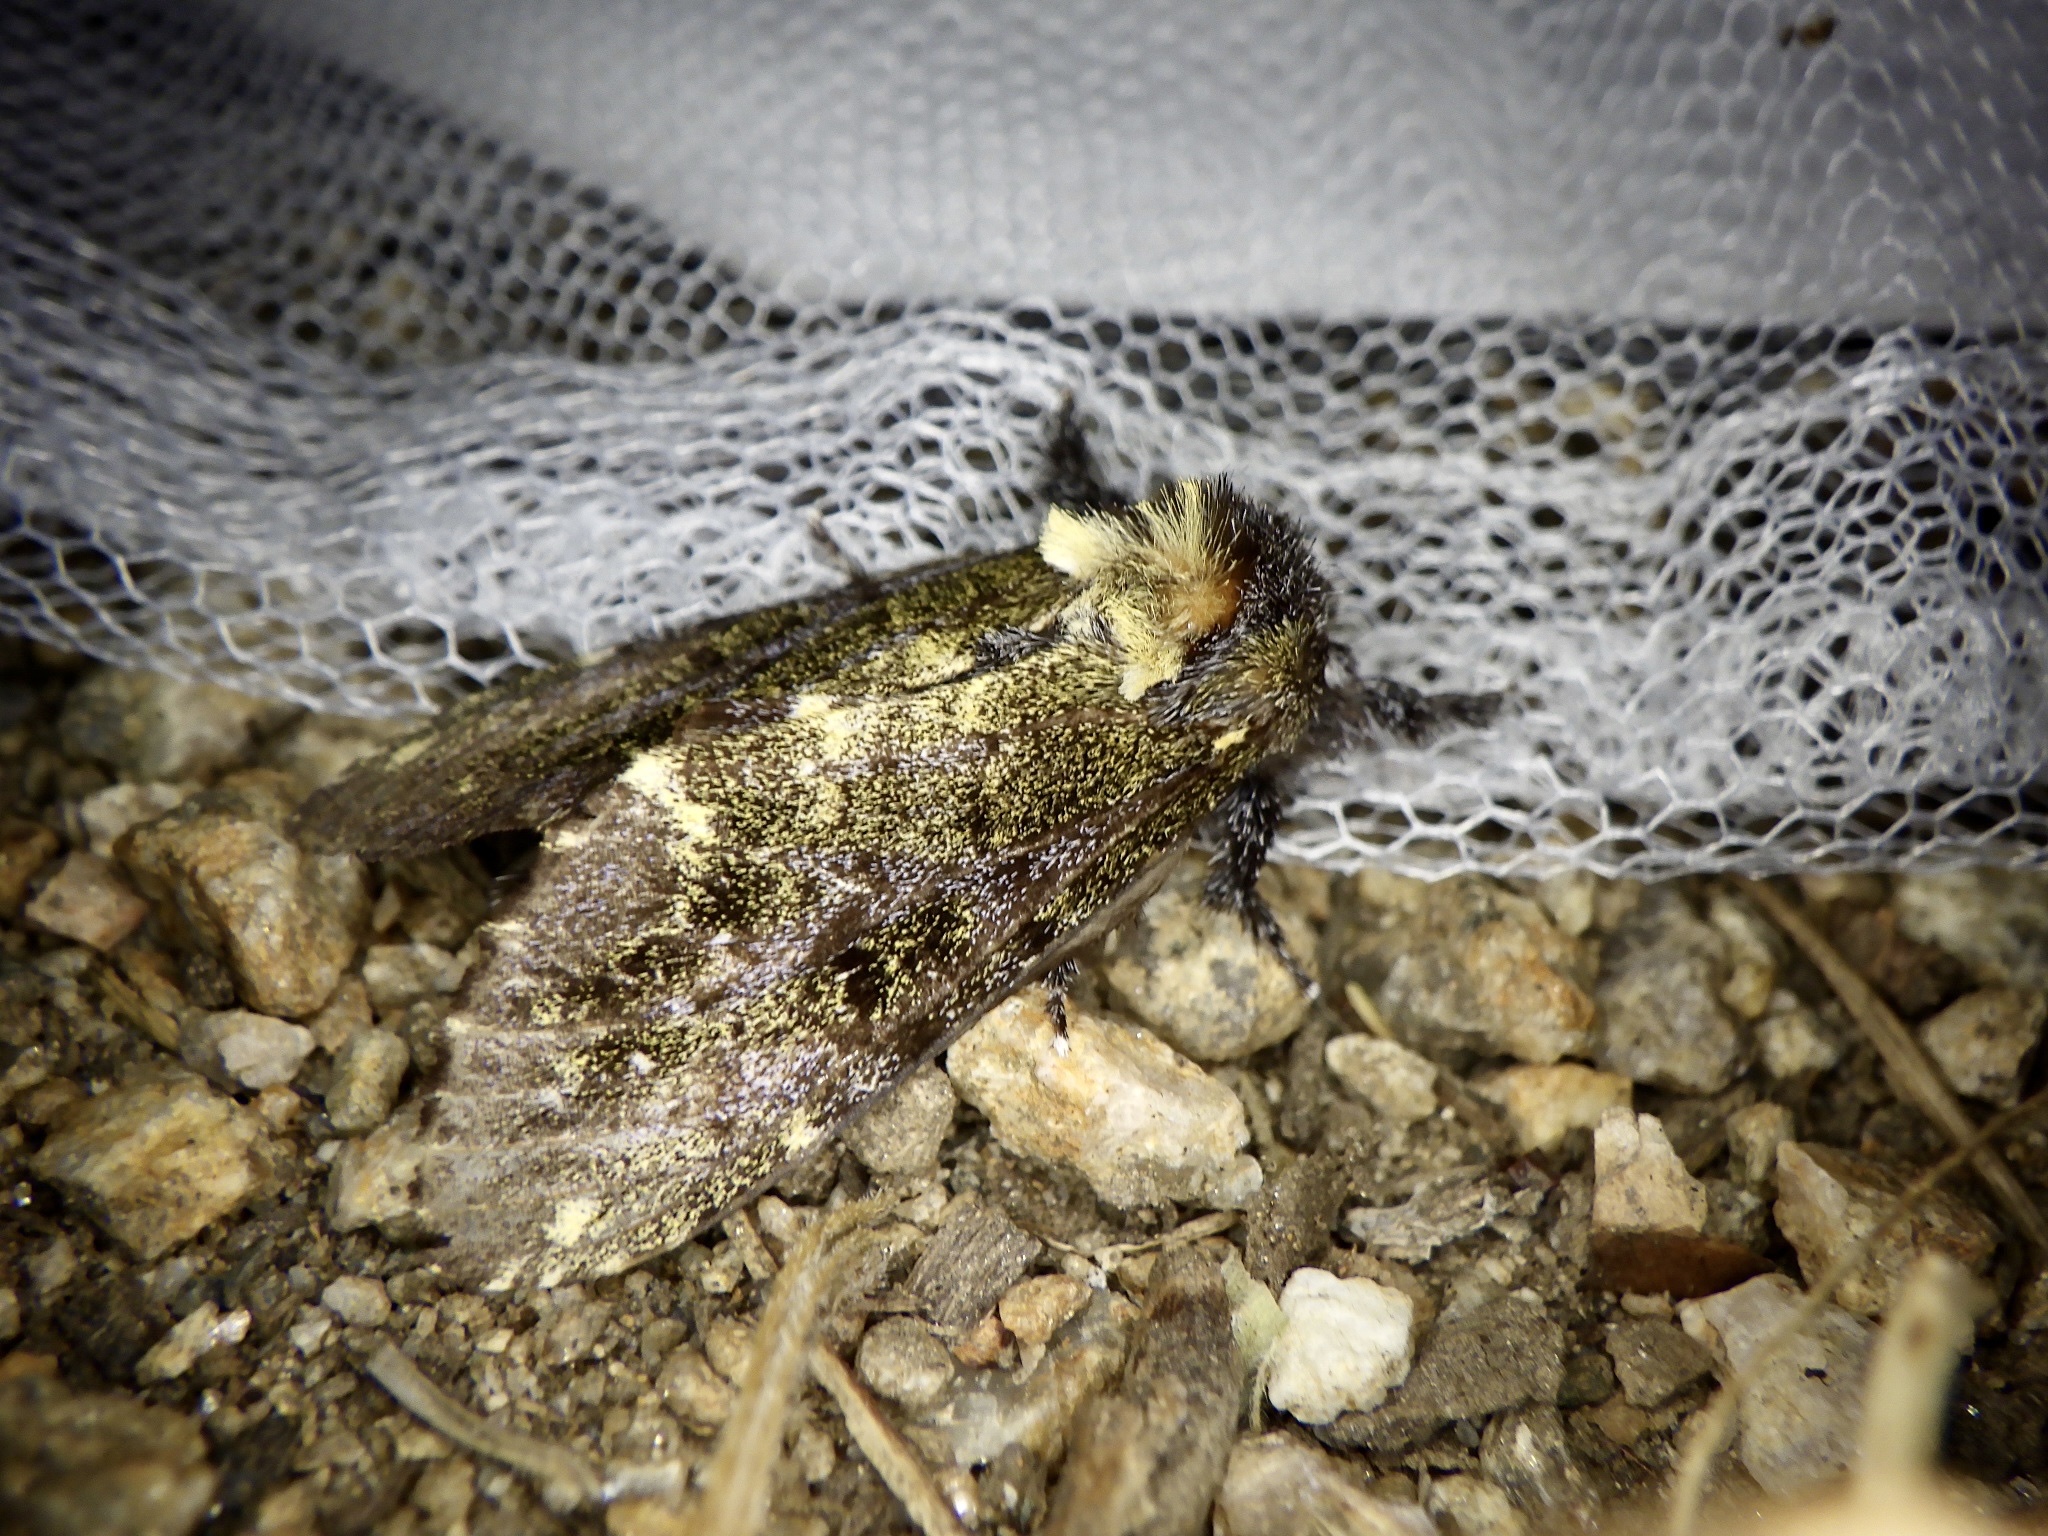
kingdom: Animalia
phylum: Arthropoda
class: Insecta
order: Lepidoptera
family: Notodontidae
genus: Zaranga
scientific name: Zaranga permagna
